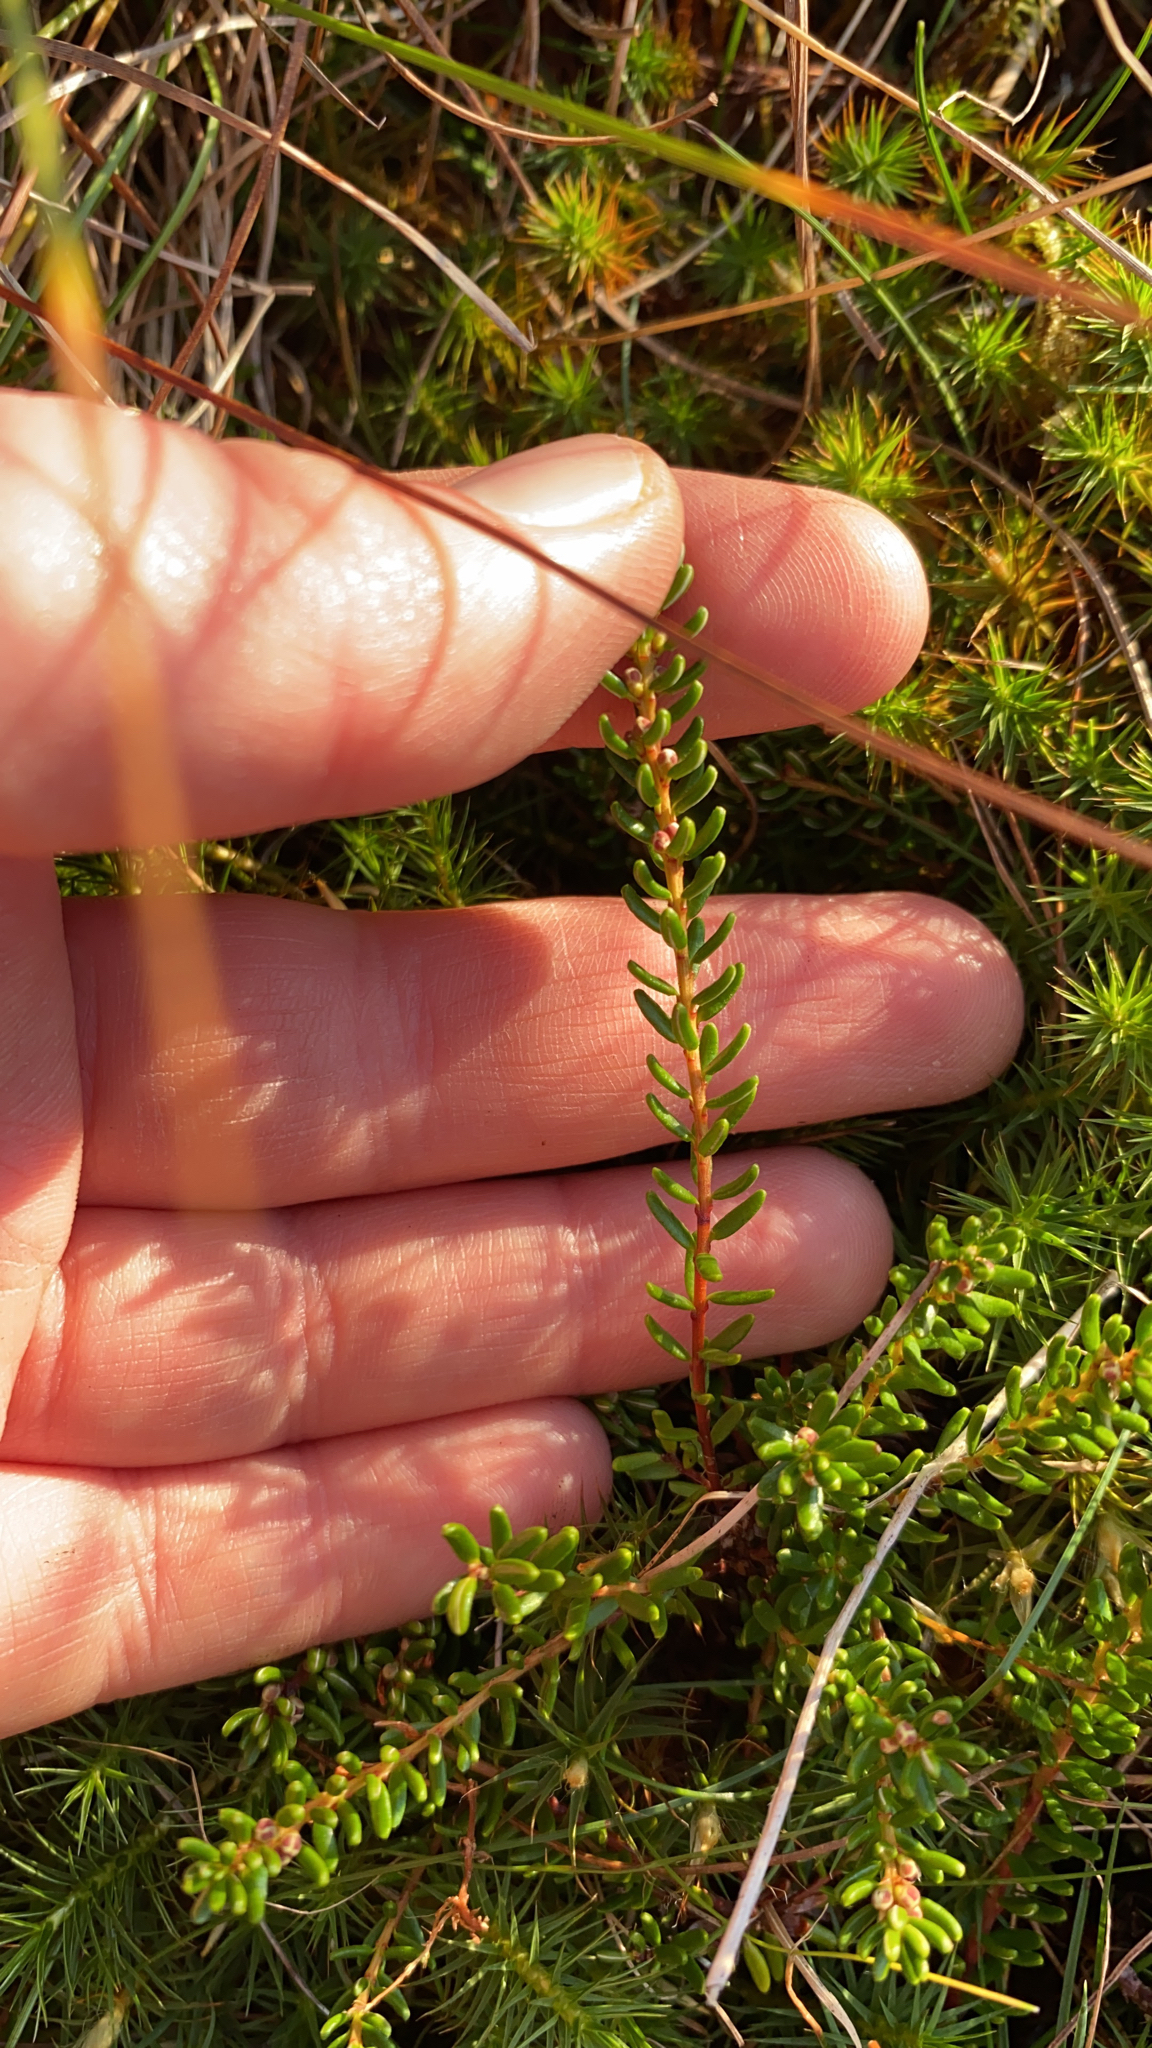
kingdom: Plantae
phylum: Tracheophyta
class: Magnoliopsida
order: Ericales
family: Ericaceae
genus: Empetrum
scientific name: Empetrum nigrum
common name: Black crowberry
